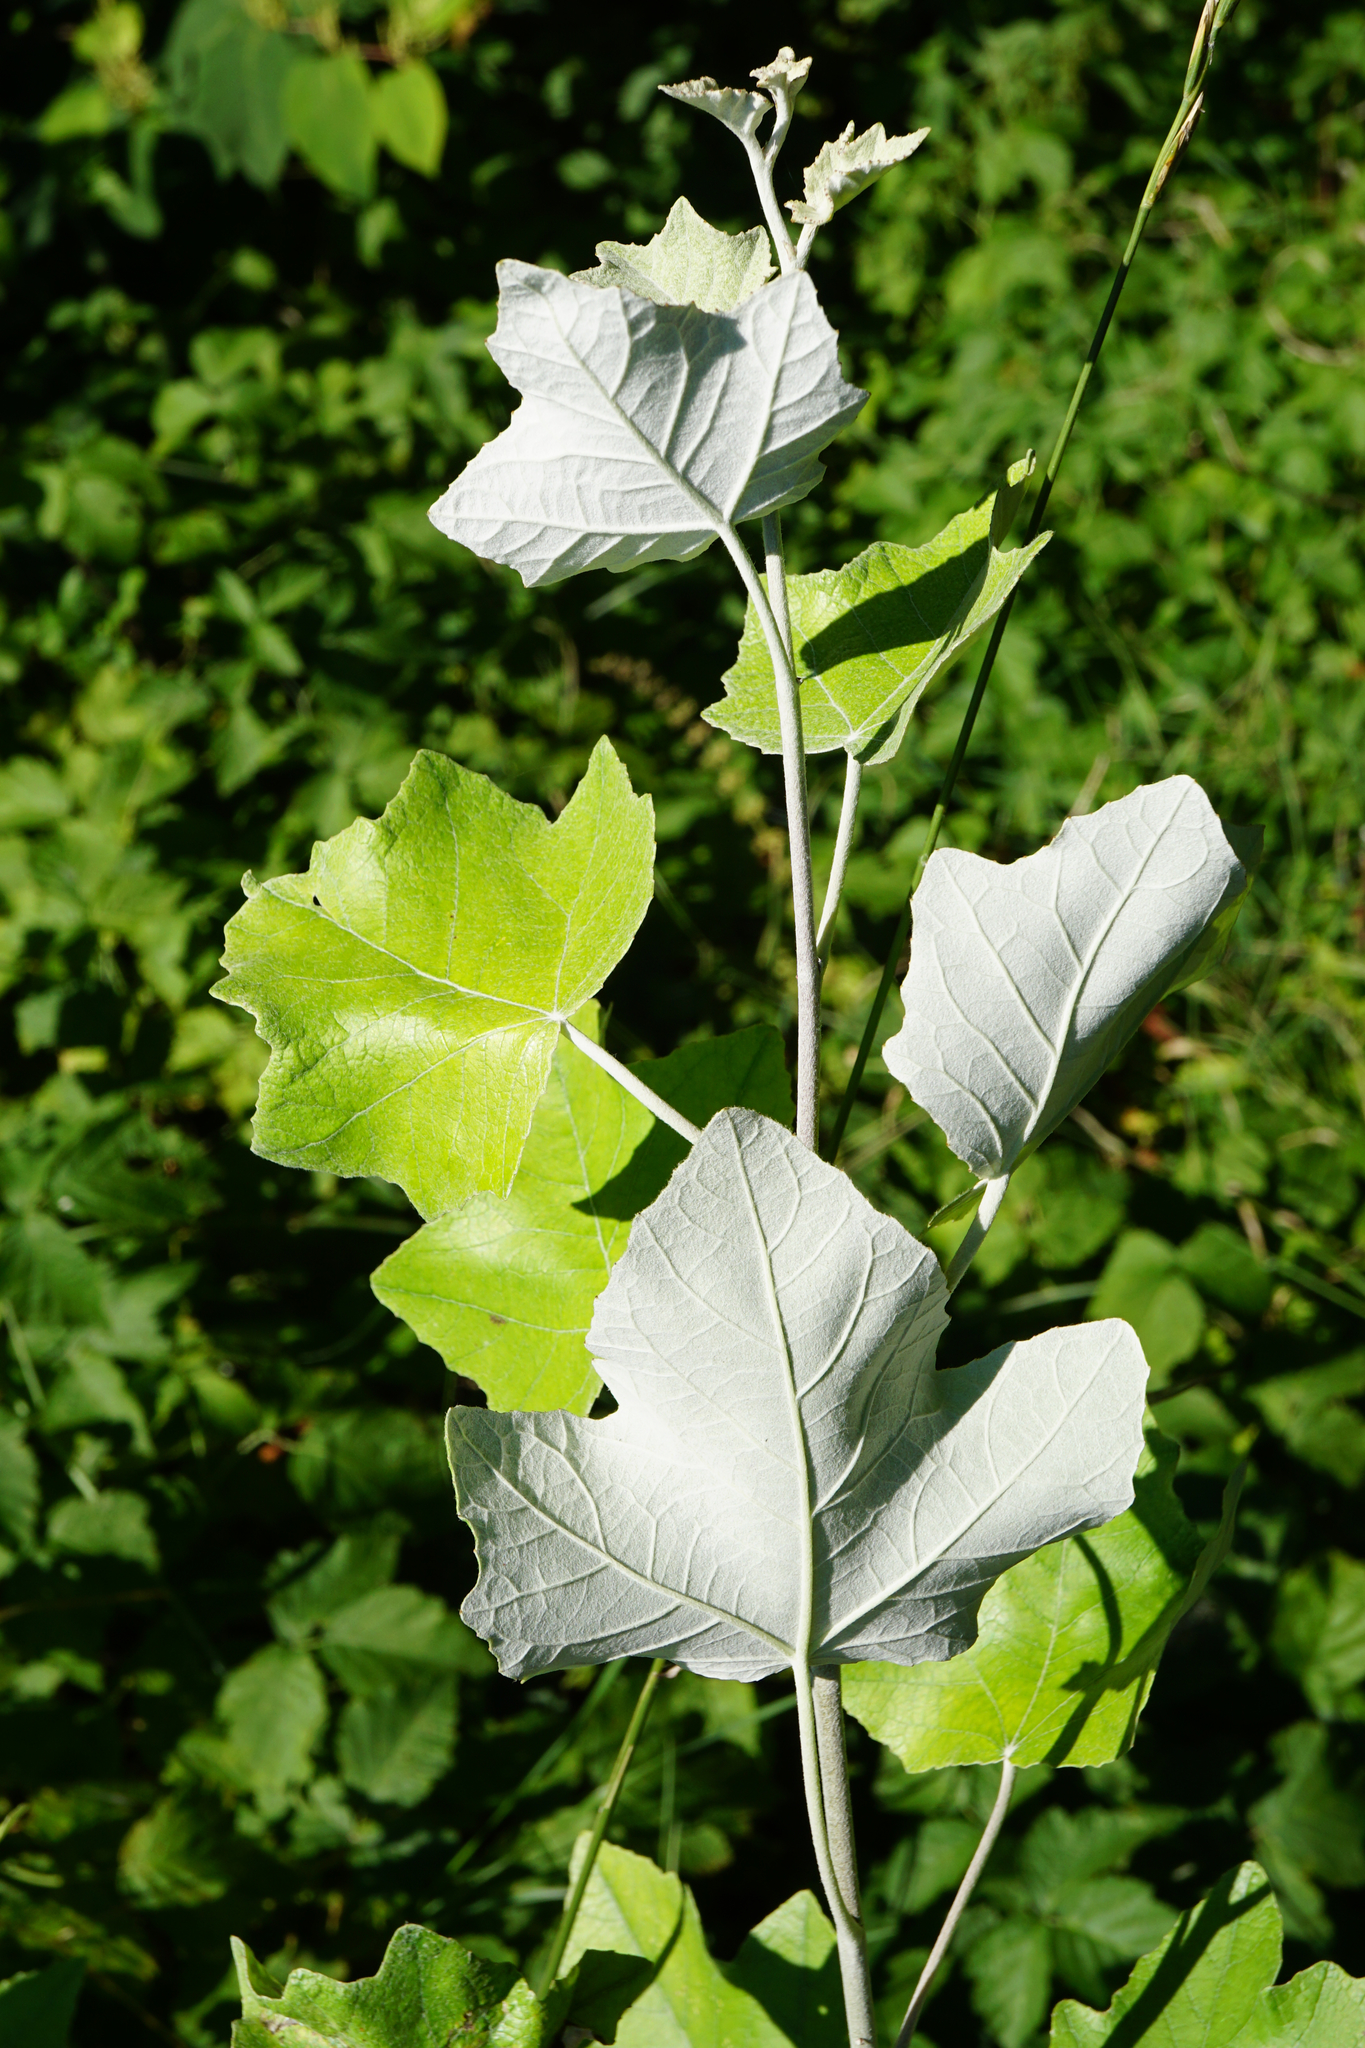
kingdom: Plantae
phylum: Tracheophyta
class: Magnoliopsida
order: Malpighiales
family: Salicaceae
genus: Populus
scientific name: Populus alba
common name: White poplar
